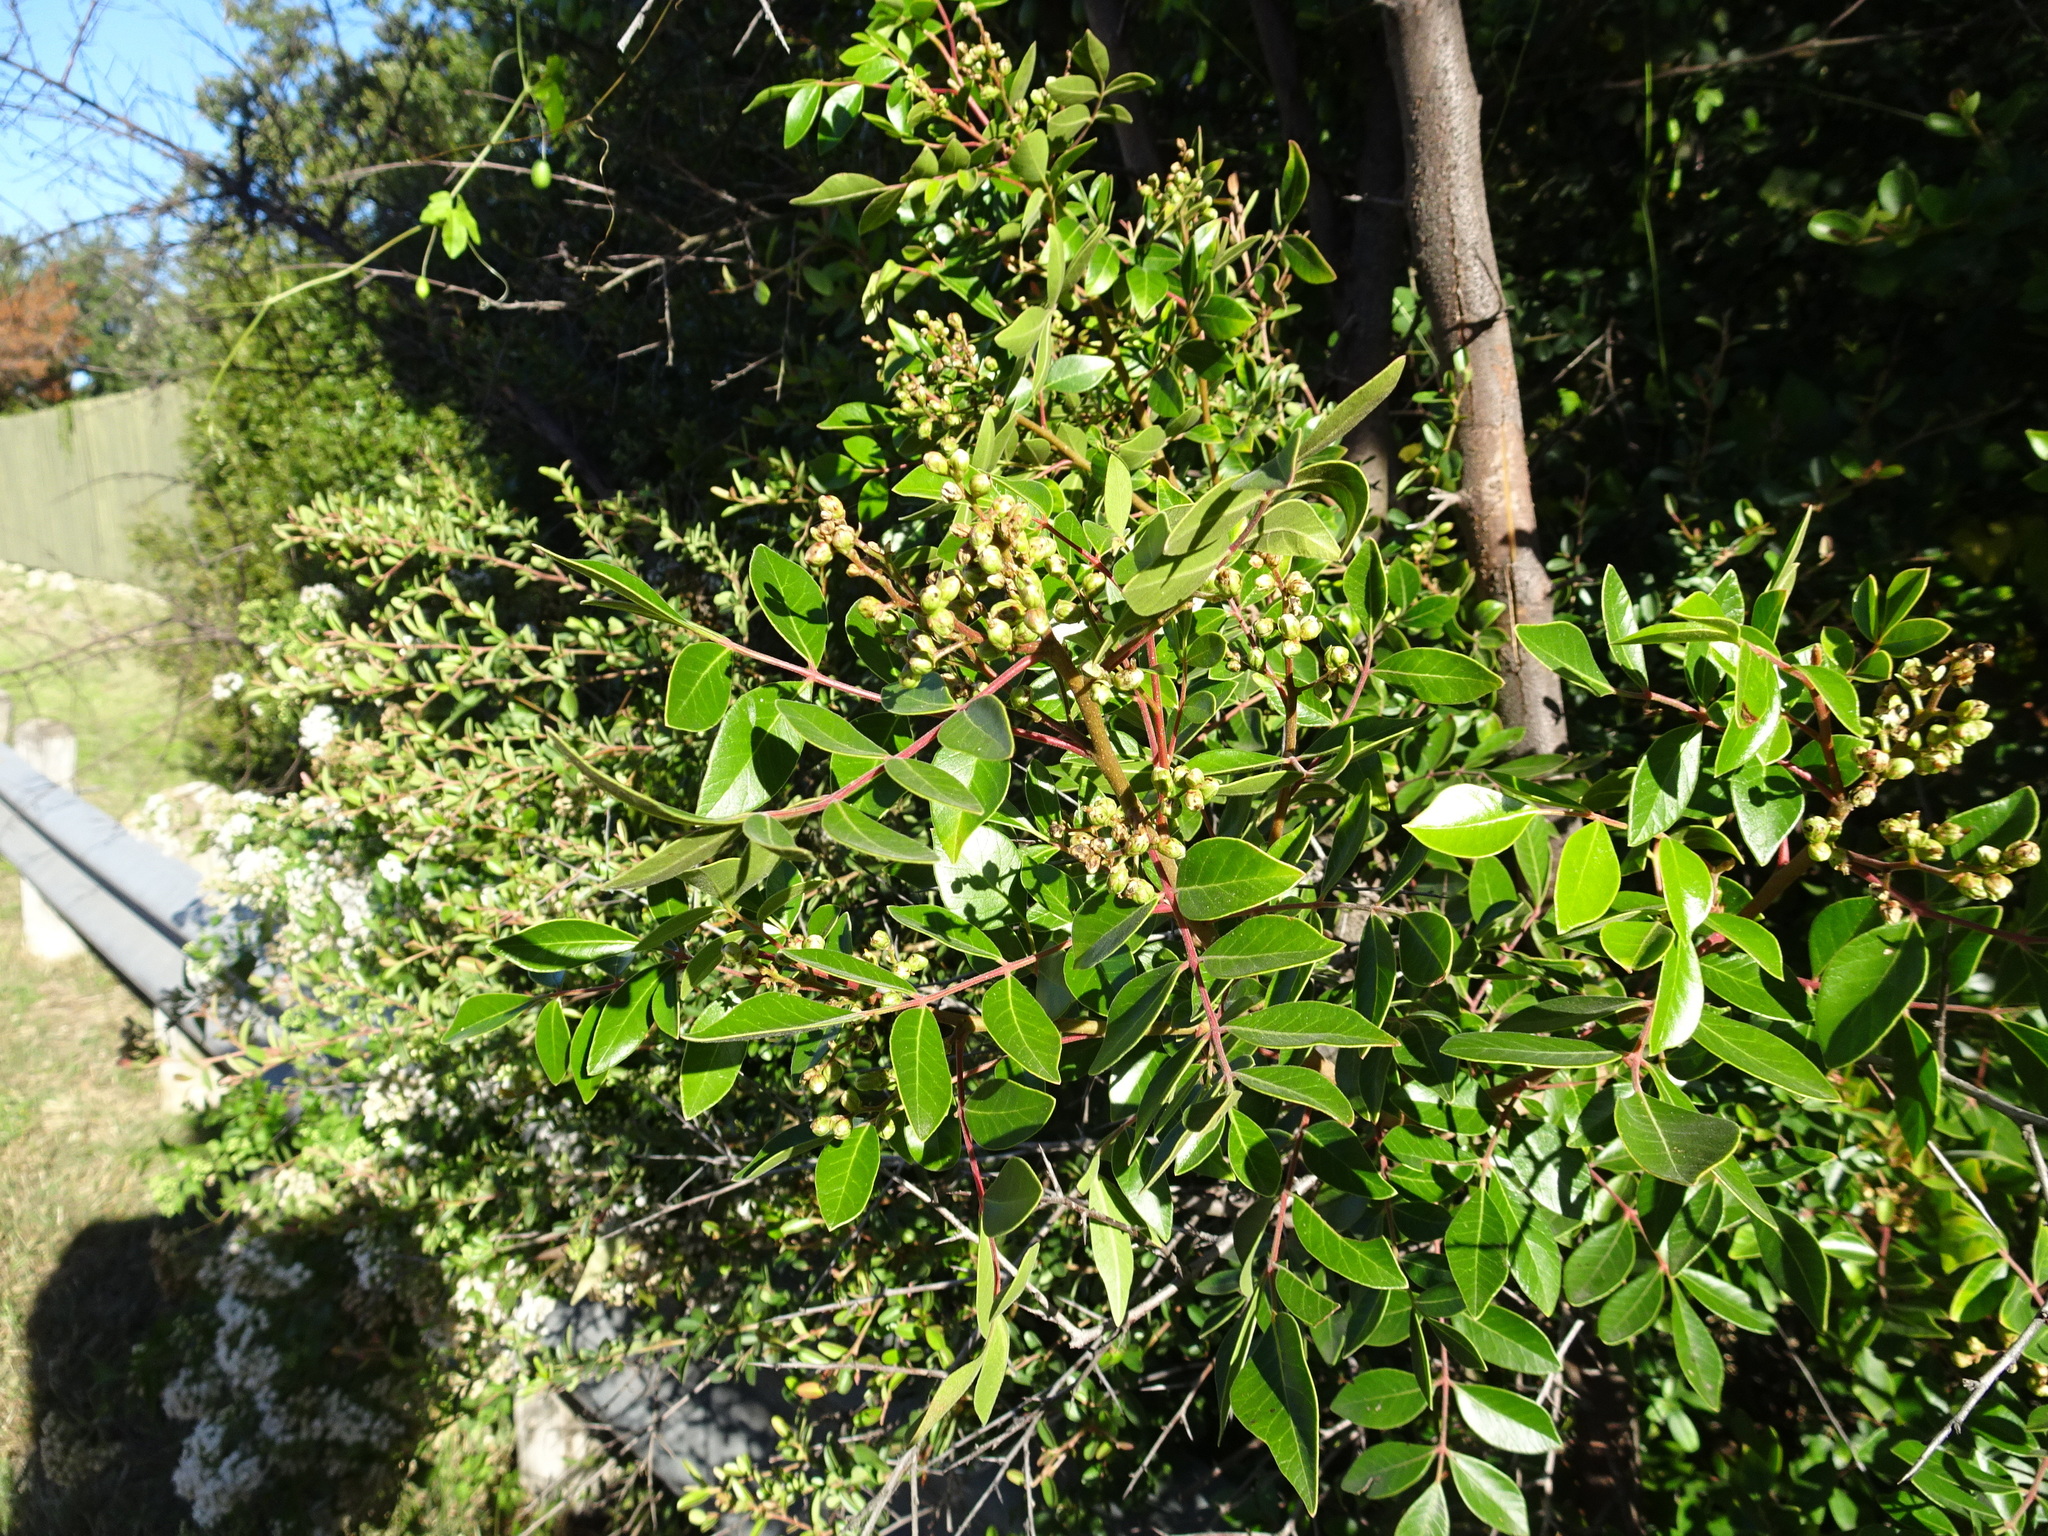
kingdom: Plantae
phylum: Tracheophyta
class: Magnoliopsida
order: Sapindales
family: Anacardiaceae
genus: Rhus
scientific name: Rhus virens
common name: Evergreen sumac
